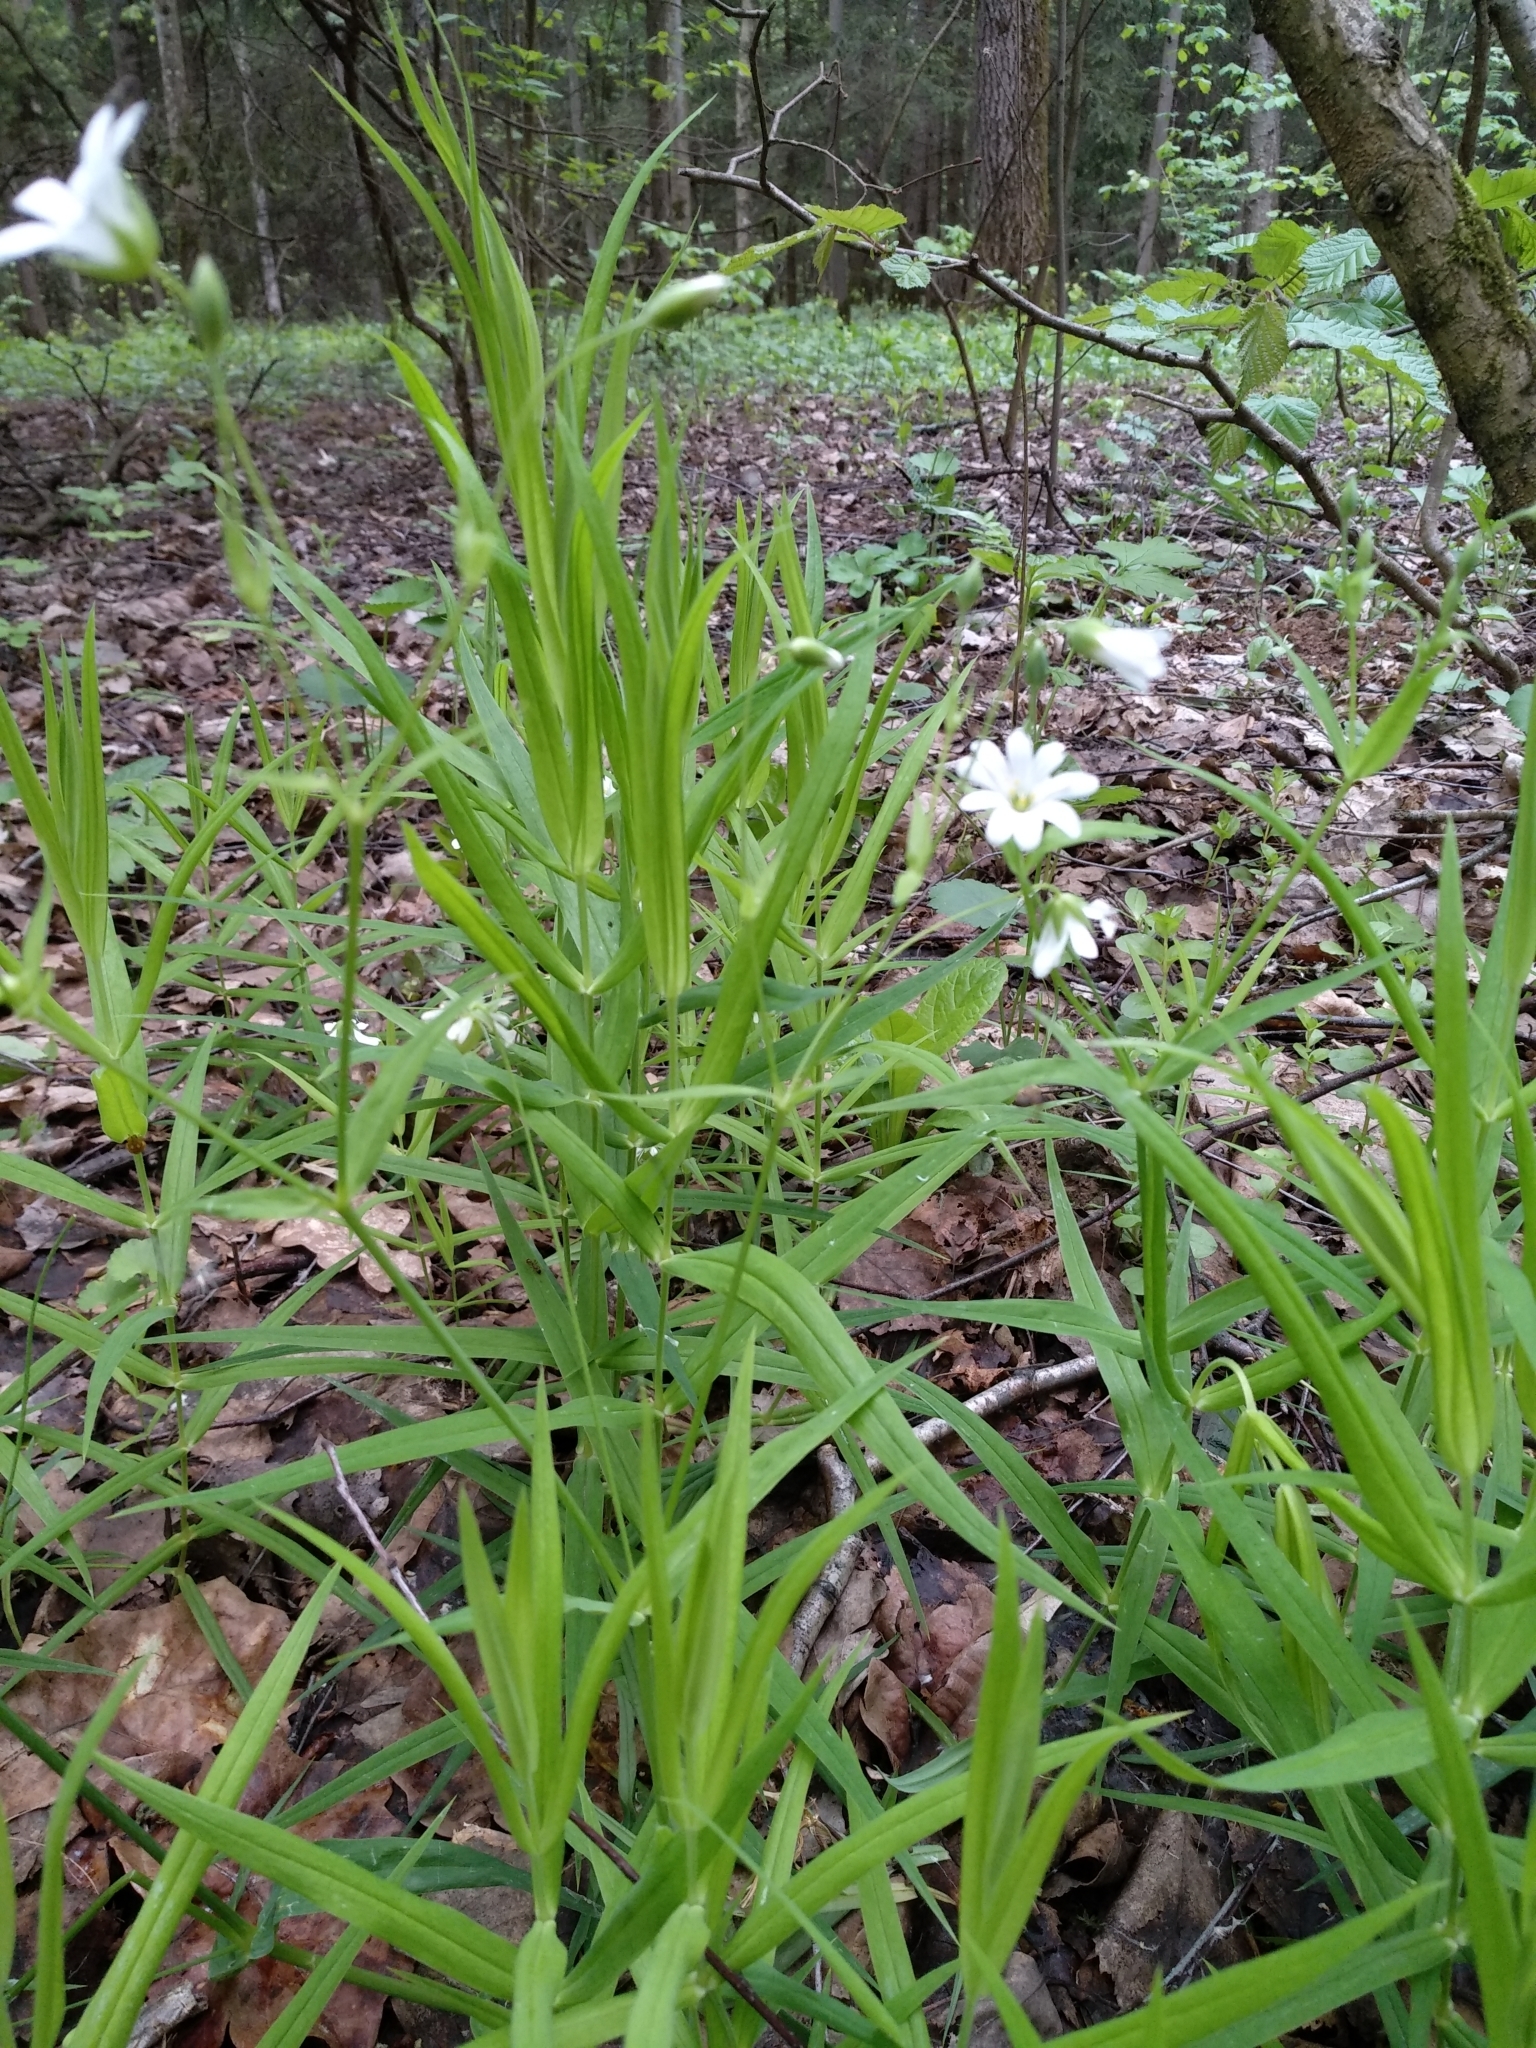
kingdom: Plantae
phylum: Tracheophyta
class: Magnoliopsida
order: Caryophyllales
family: Caryophyllaceae
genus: Rabelera
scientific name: Rabelera holostea
